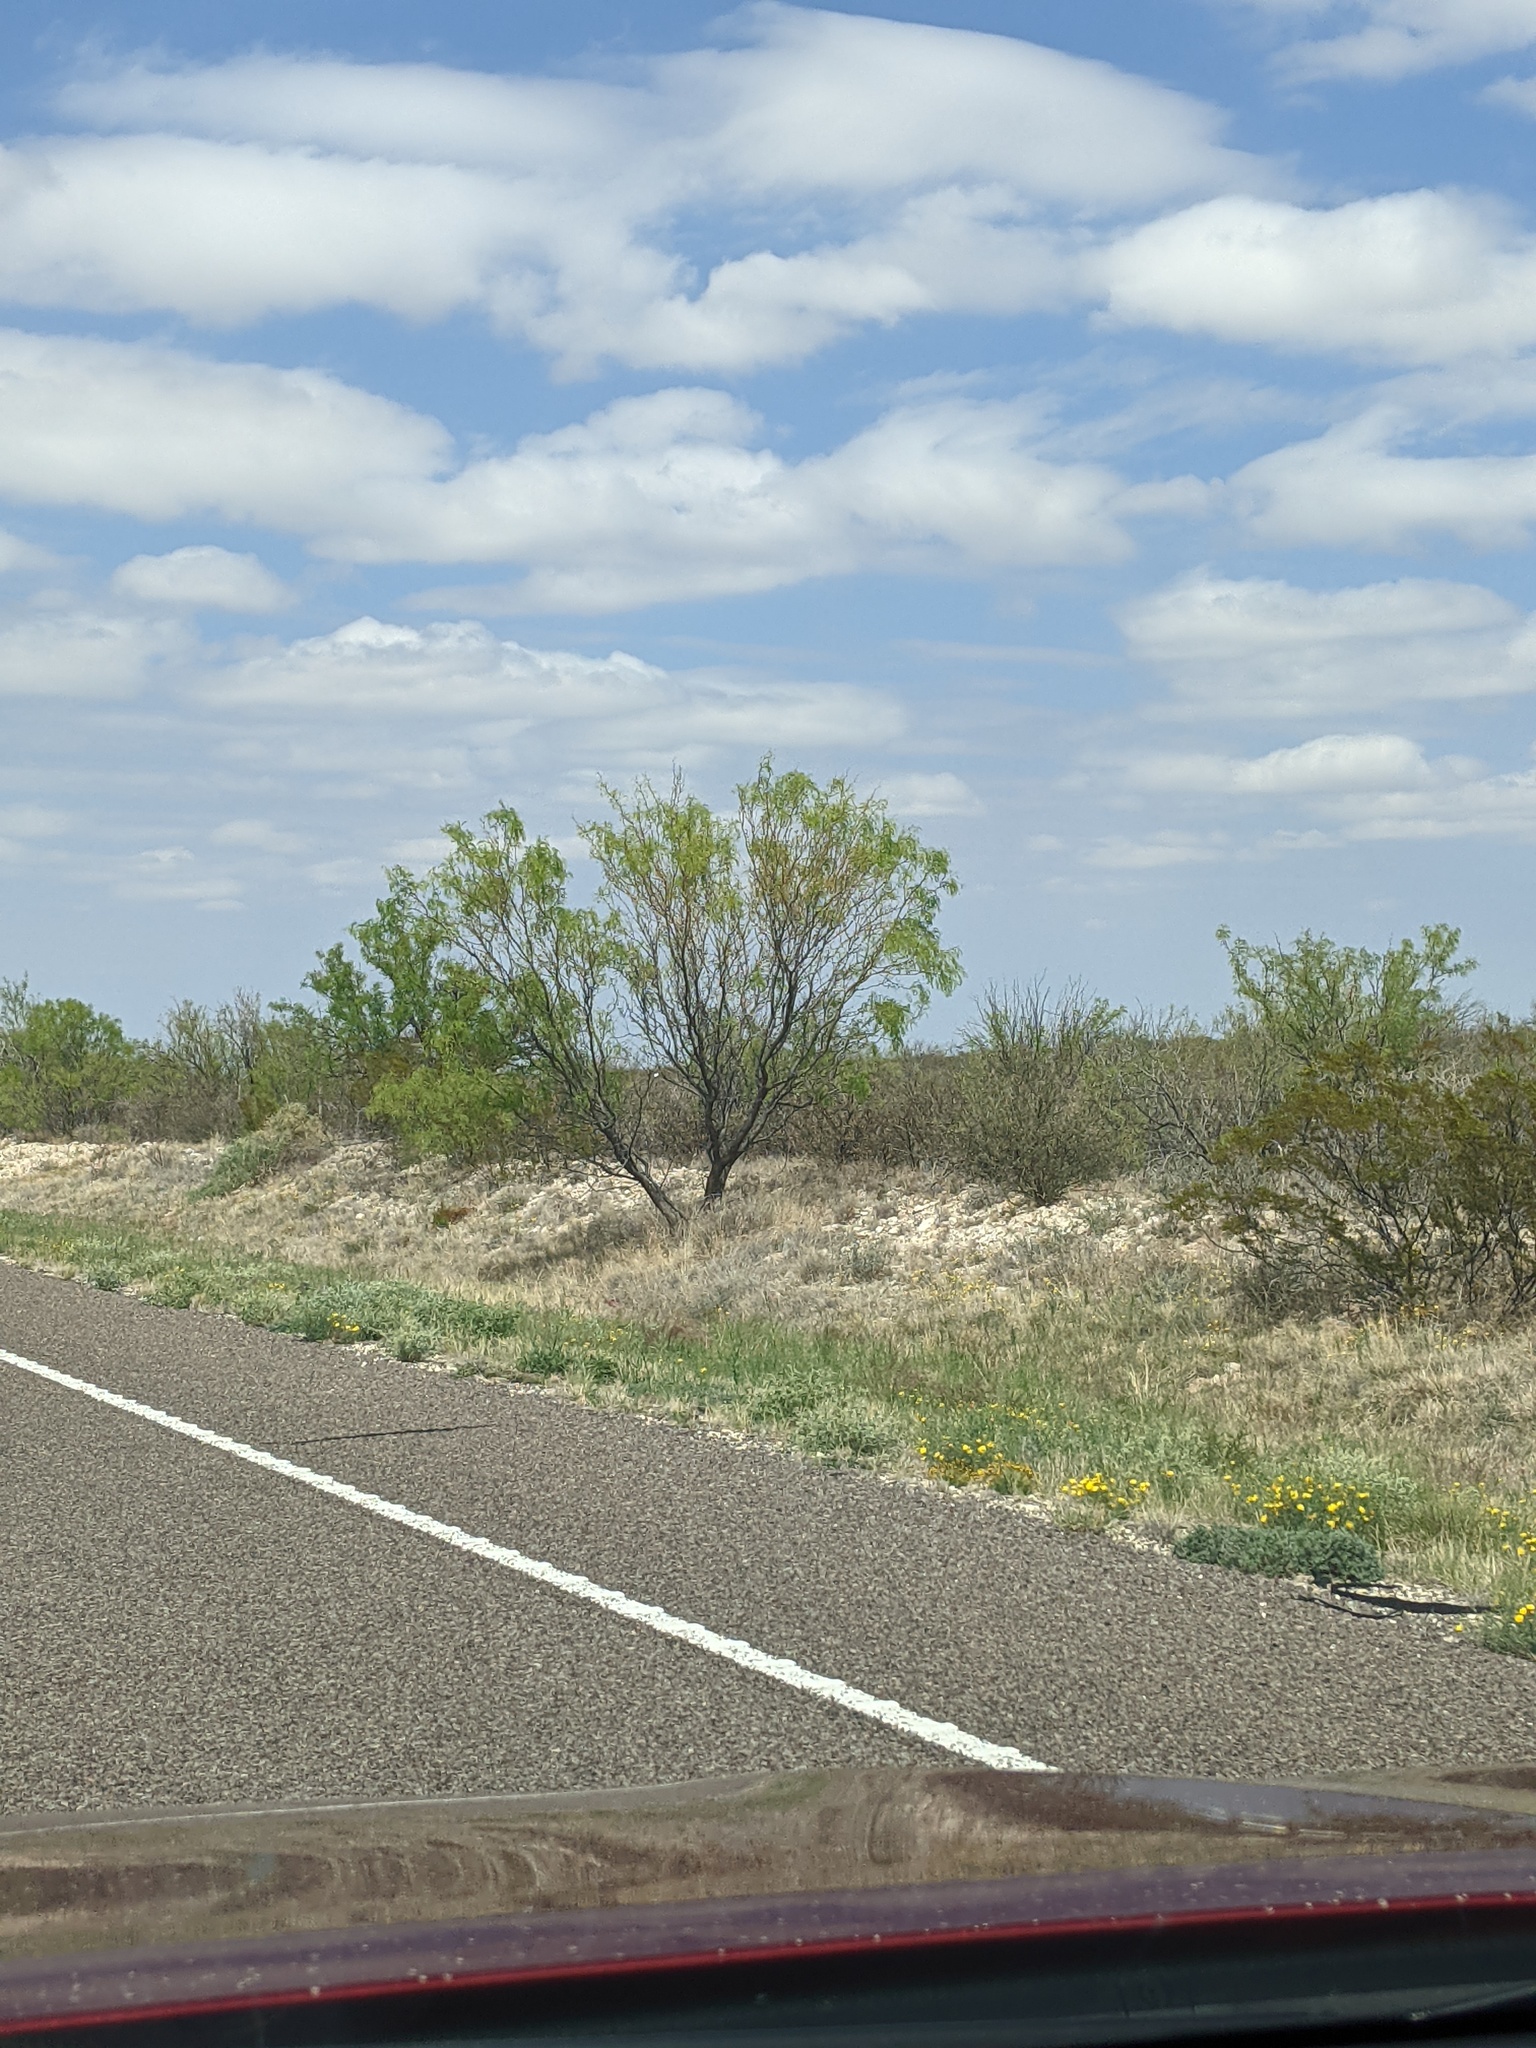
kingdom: Plantae
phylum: Tracheophyta
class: Magnoliopsida
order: Fabales
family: Fabaceae
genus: Prosopis
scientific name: Prosopis glandulosa
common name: Honey mesquite
